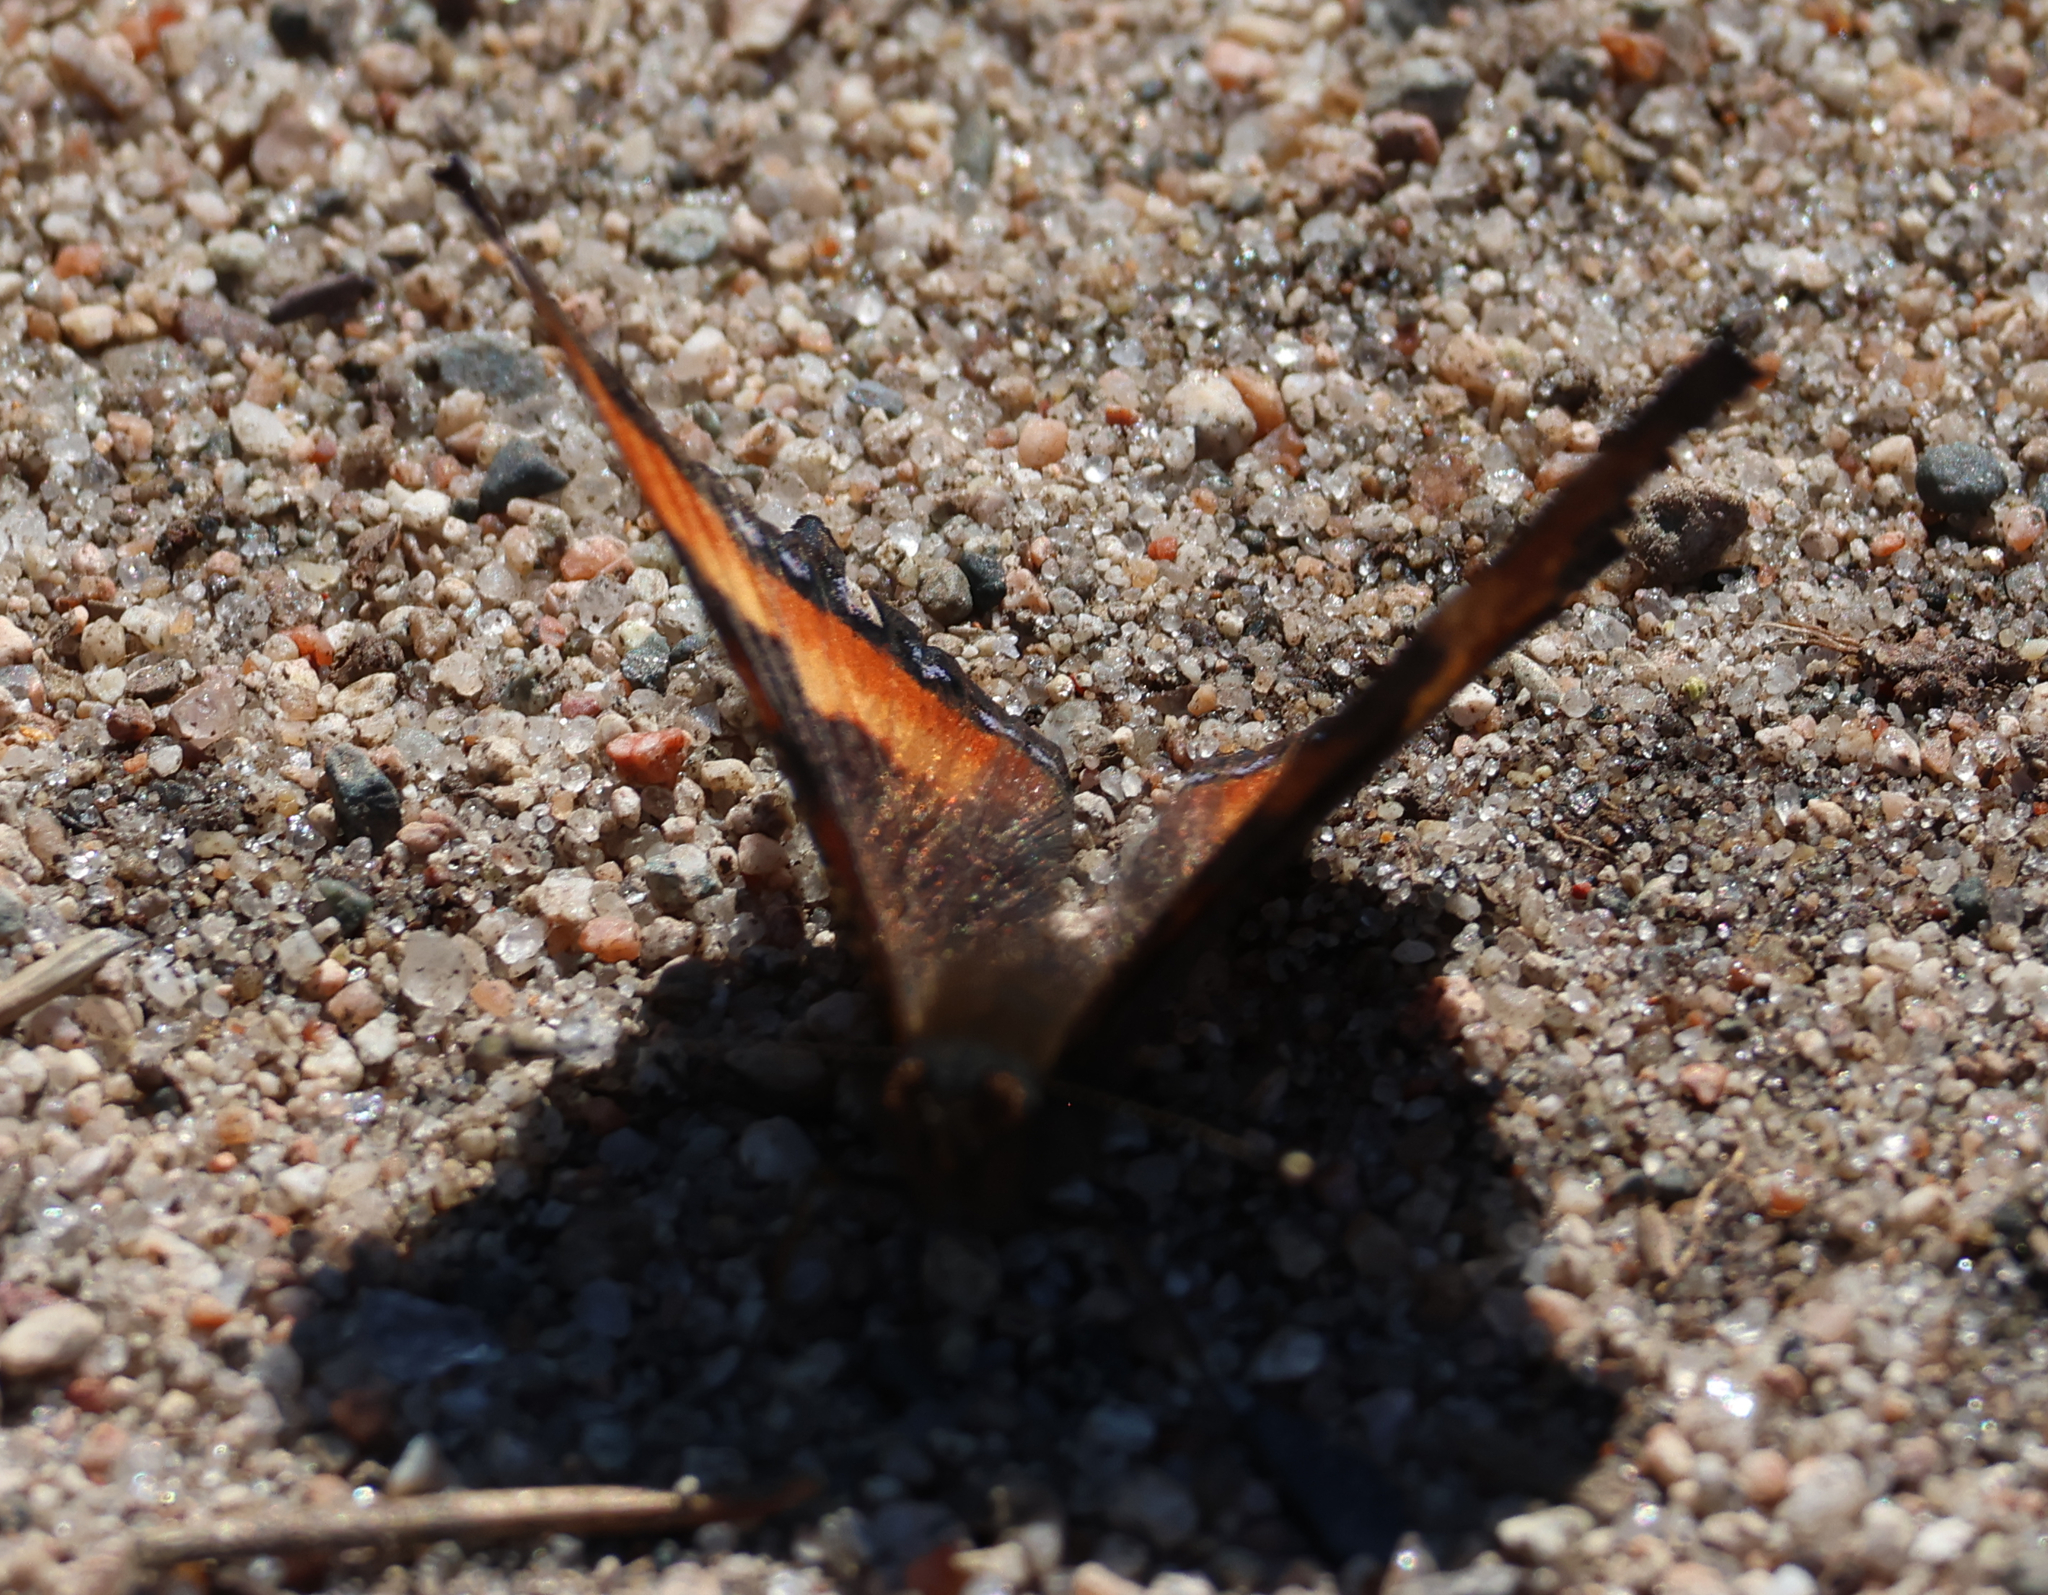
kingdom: Animalia
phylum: Arthropoda
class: Insecta
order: Lepidoptera
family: Nymphalidae
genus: Aglais
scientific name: Aglais milberti
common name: Milbert's tortoiseshell
